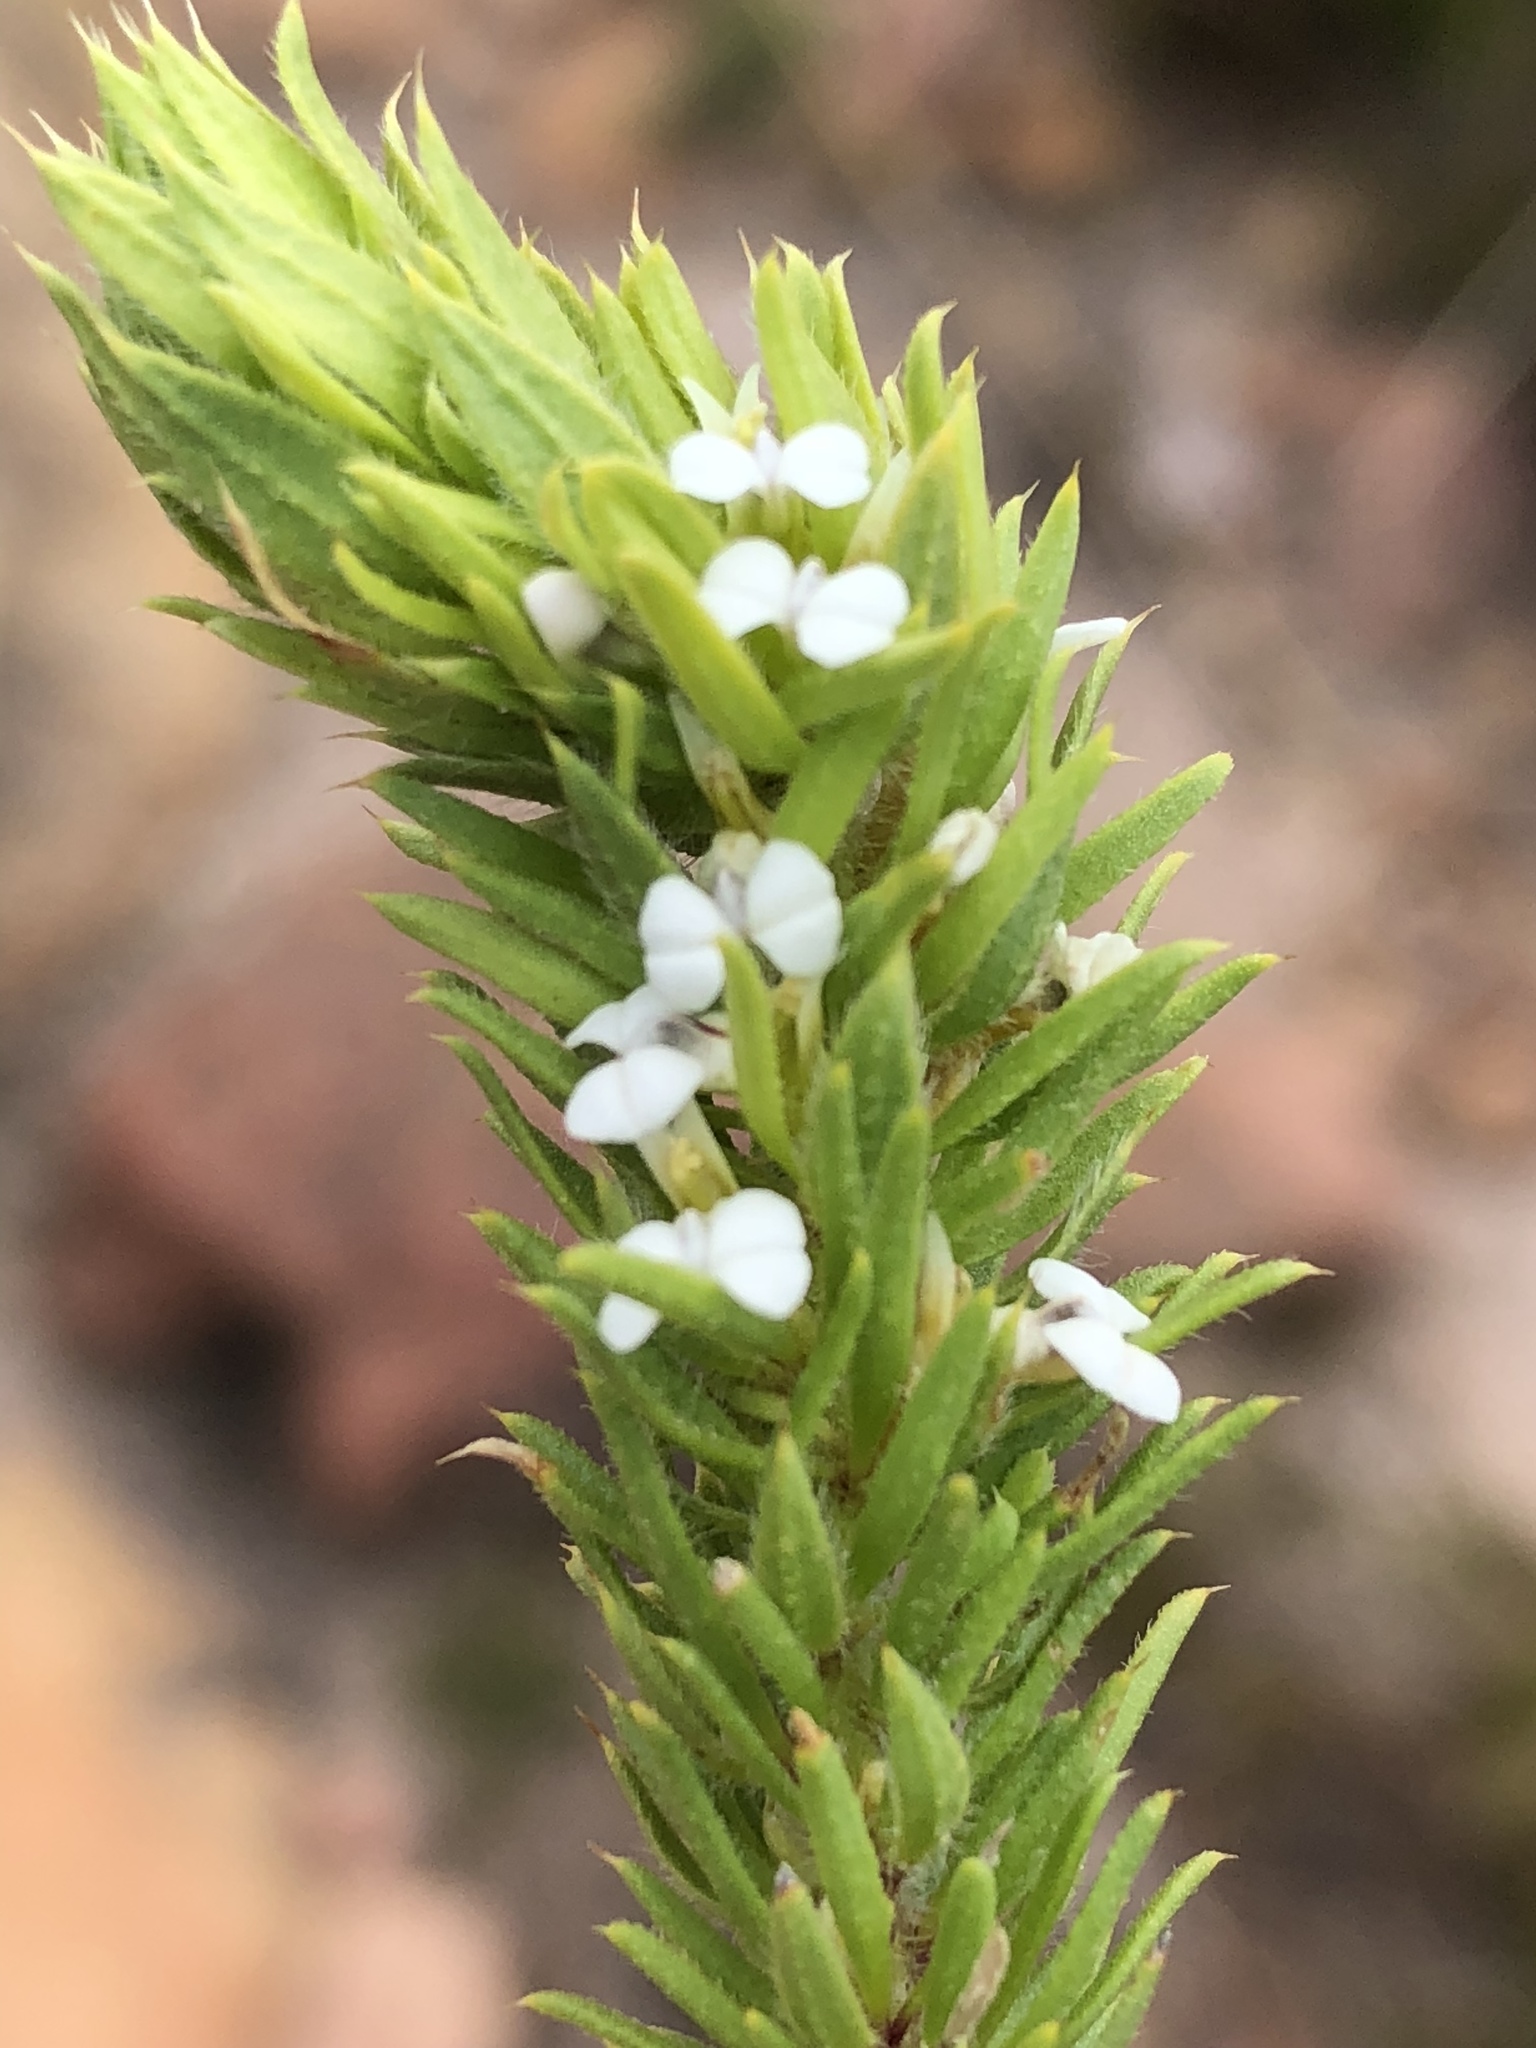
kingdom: Plantae
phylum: Tracheophyta
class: Magnoliopsida
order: Fabales
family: Polygalaceae
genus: Muraltia
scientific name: Muraltia alba
